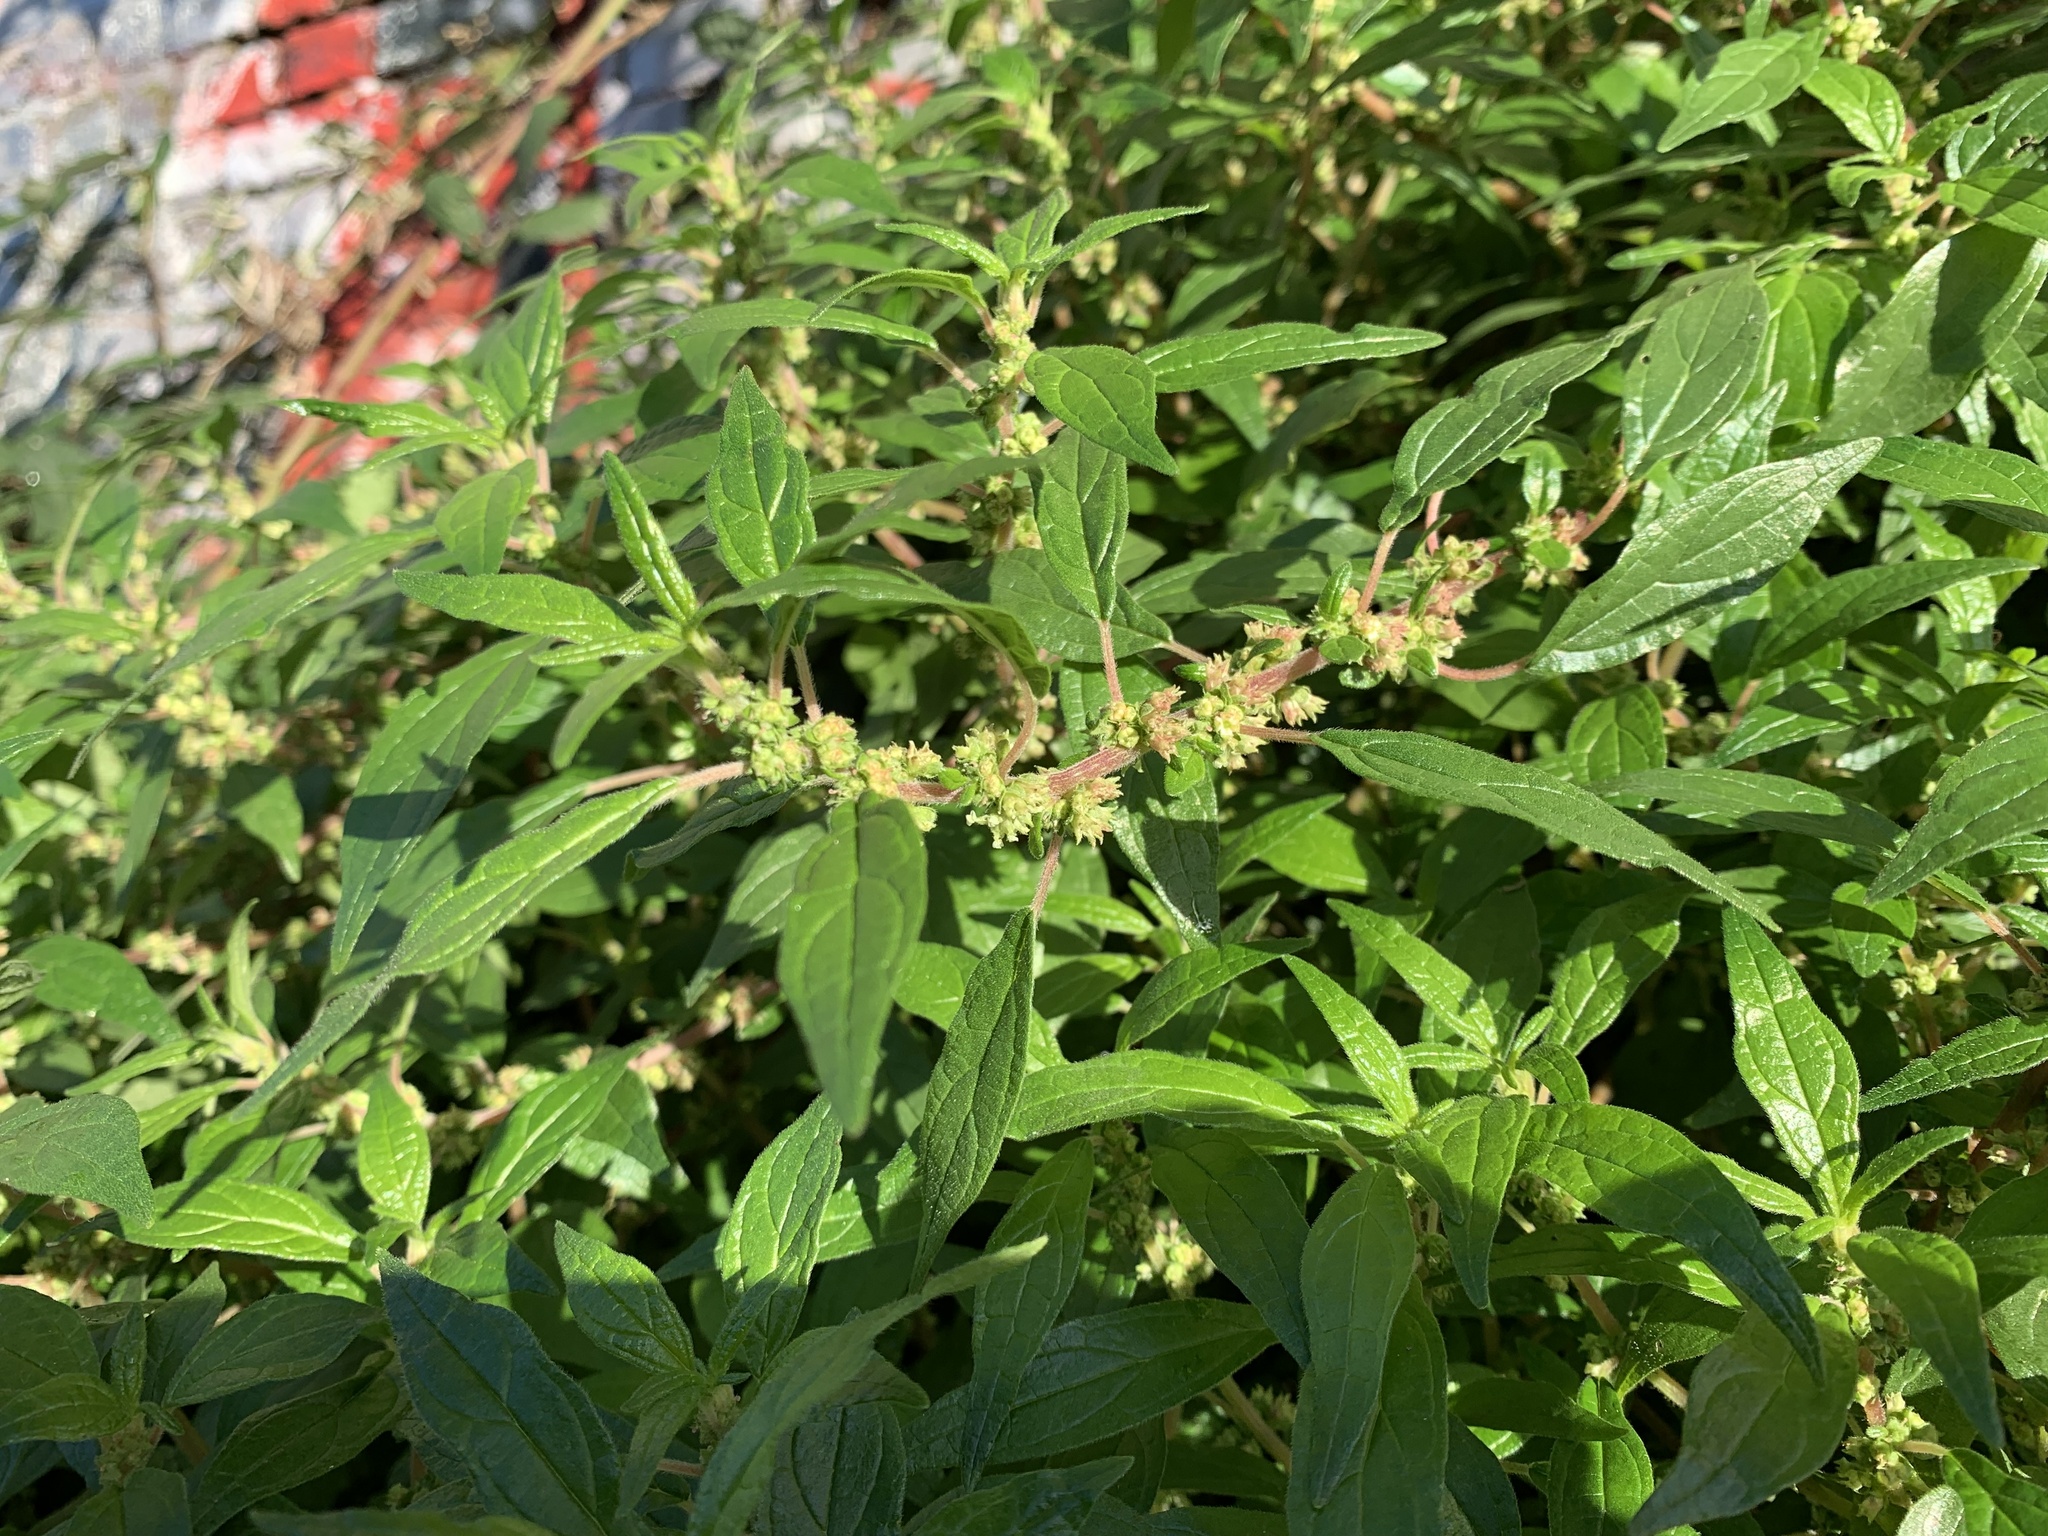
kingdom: Plantae
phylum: Tracheophyta
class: Magnoliopsida
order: Rosales
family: Urticaceae
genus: Parietaria
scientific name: Parietaria judaica
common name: Pellitory-of-the-wall
